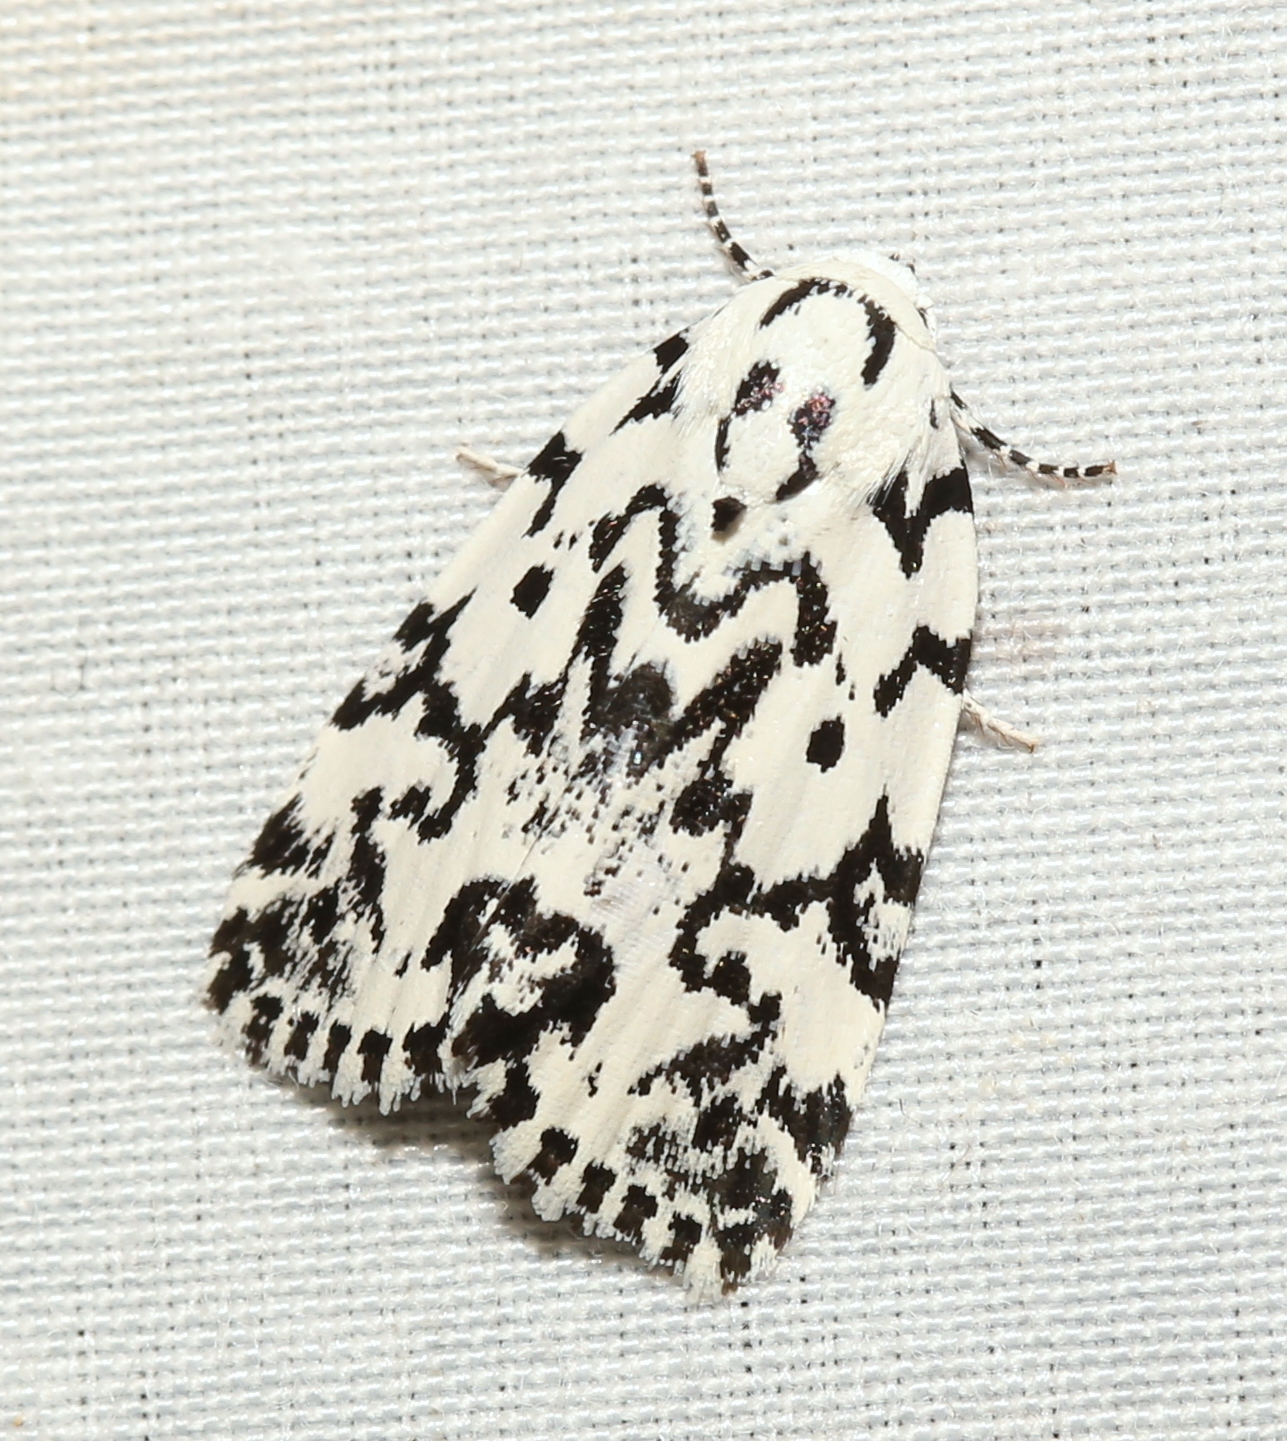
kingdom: Animalia
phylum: Arthropoda
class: Insecta
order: Lepidoptera
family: Noctuidae
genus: Polygrammate
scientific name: Polygrammate hebraeicum
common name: Hebrew moth
